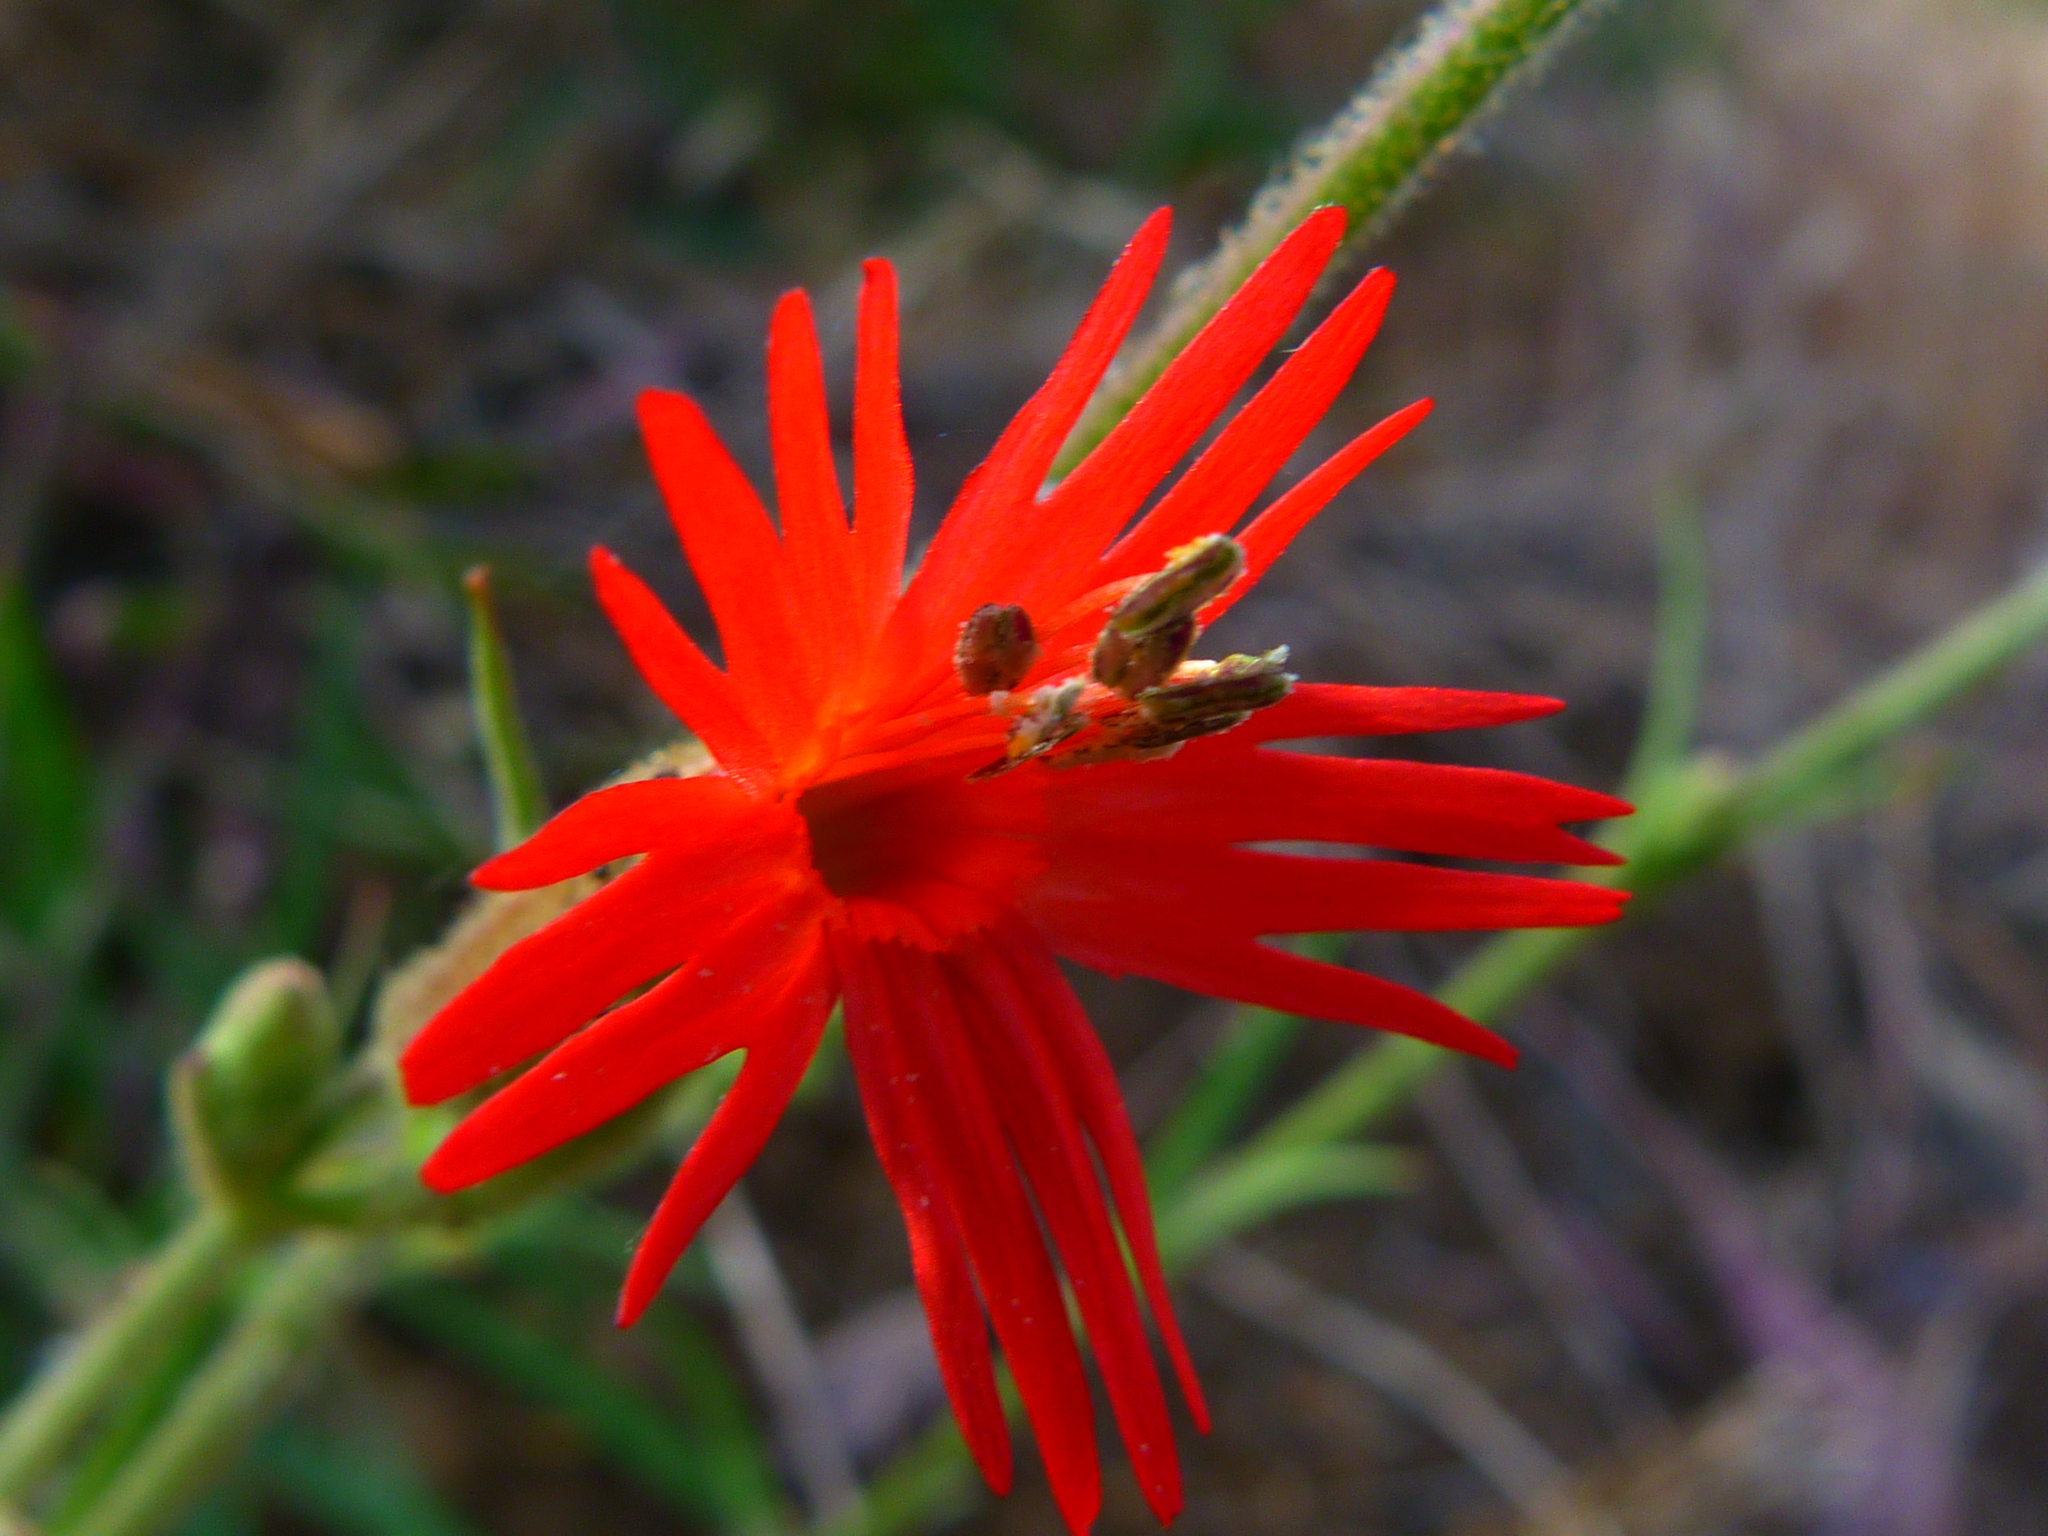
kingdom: Plantae
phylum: Tracheophyta
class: Magnoliopsida
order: Caryophyllales
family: Caryophyllaceae
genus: Silene
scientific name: Silene laciniata
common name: Indian-pink
